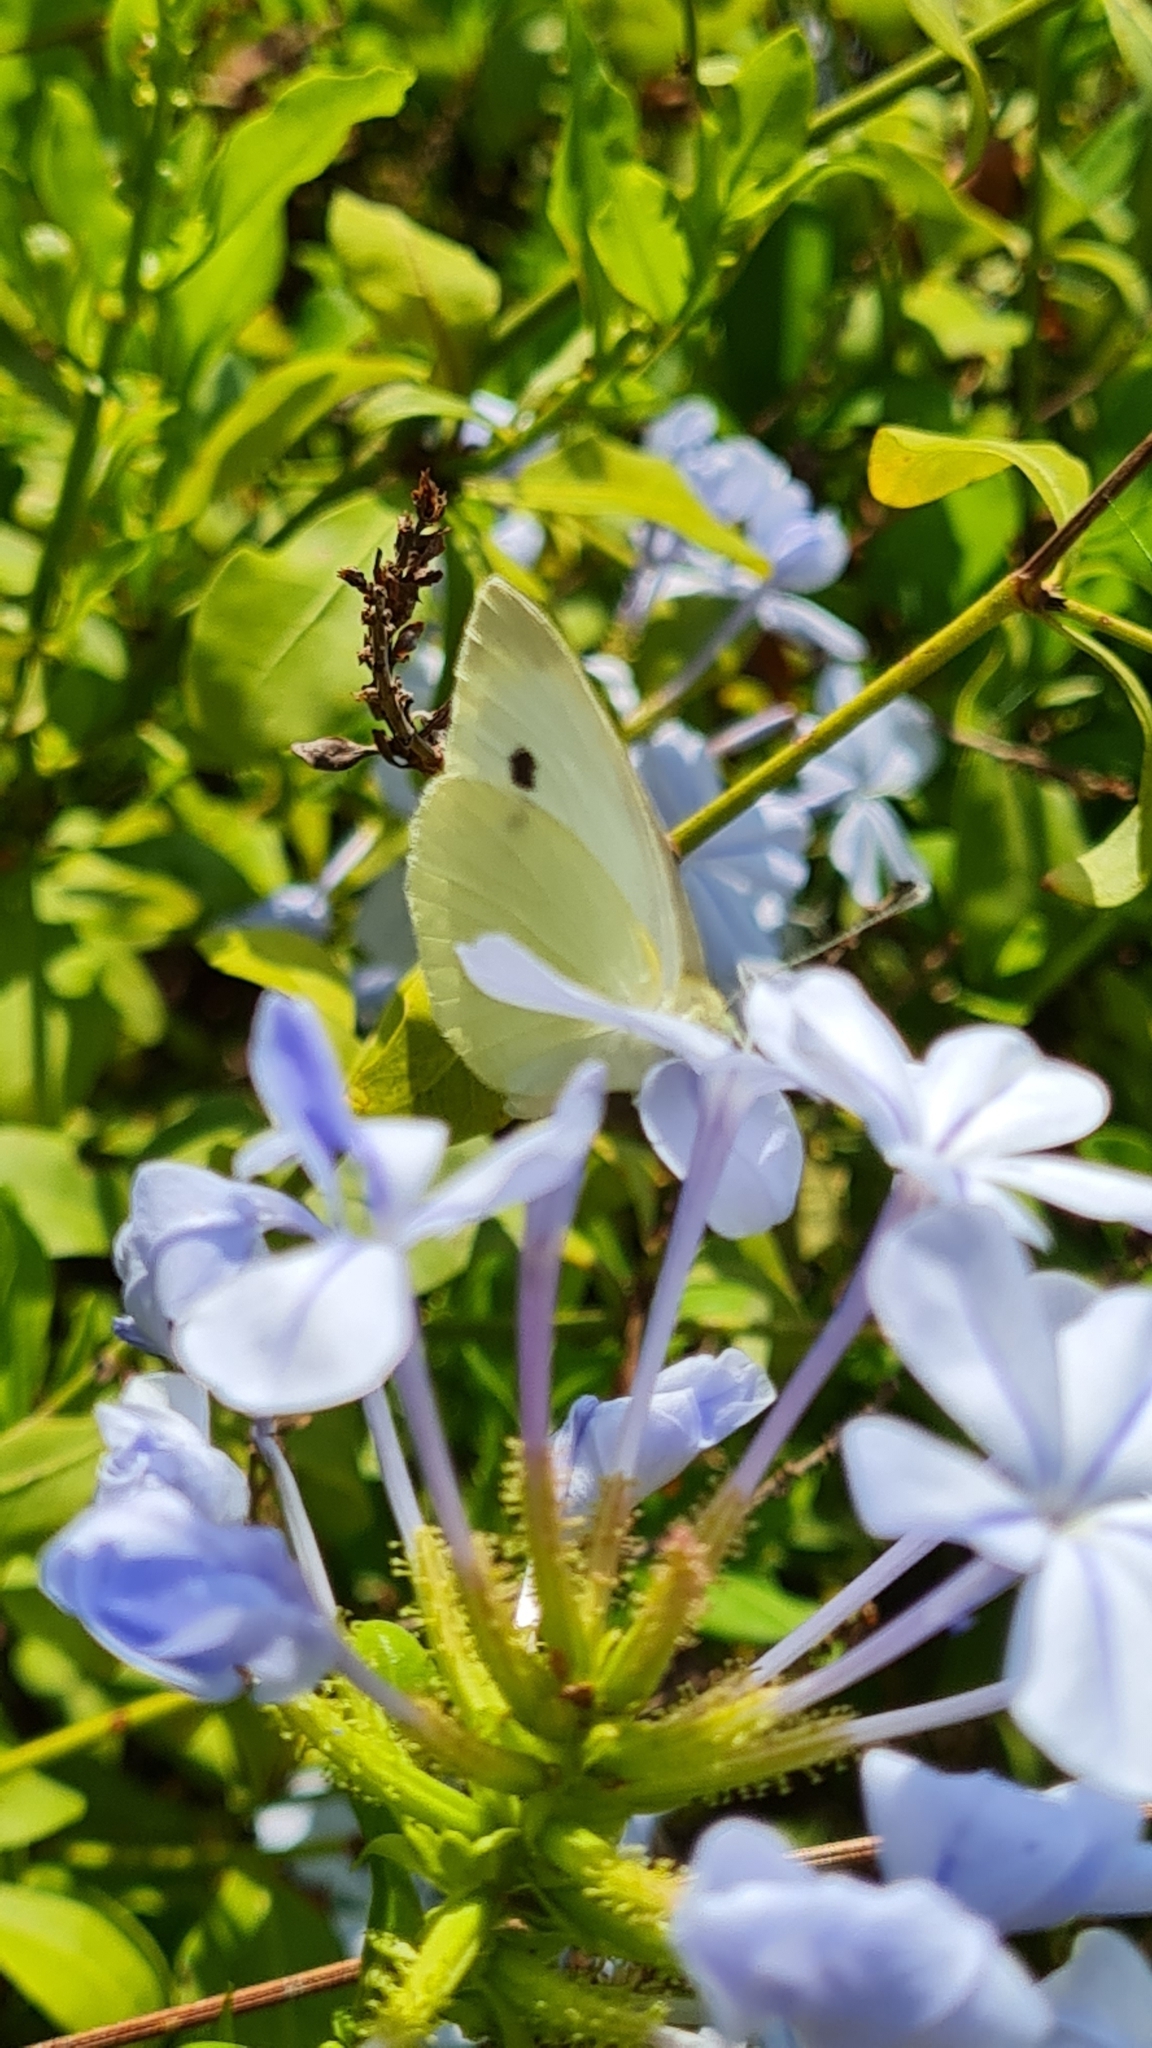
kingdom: Animalia
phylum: Arthropoda
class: Insecta
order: Lepidoptera
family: Pieridae
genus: Pieris
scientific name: Pieris rapae
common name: Small white
